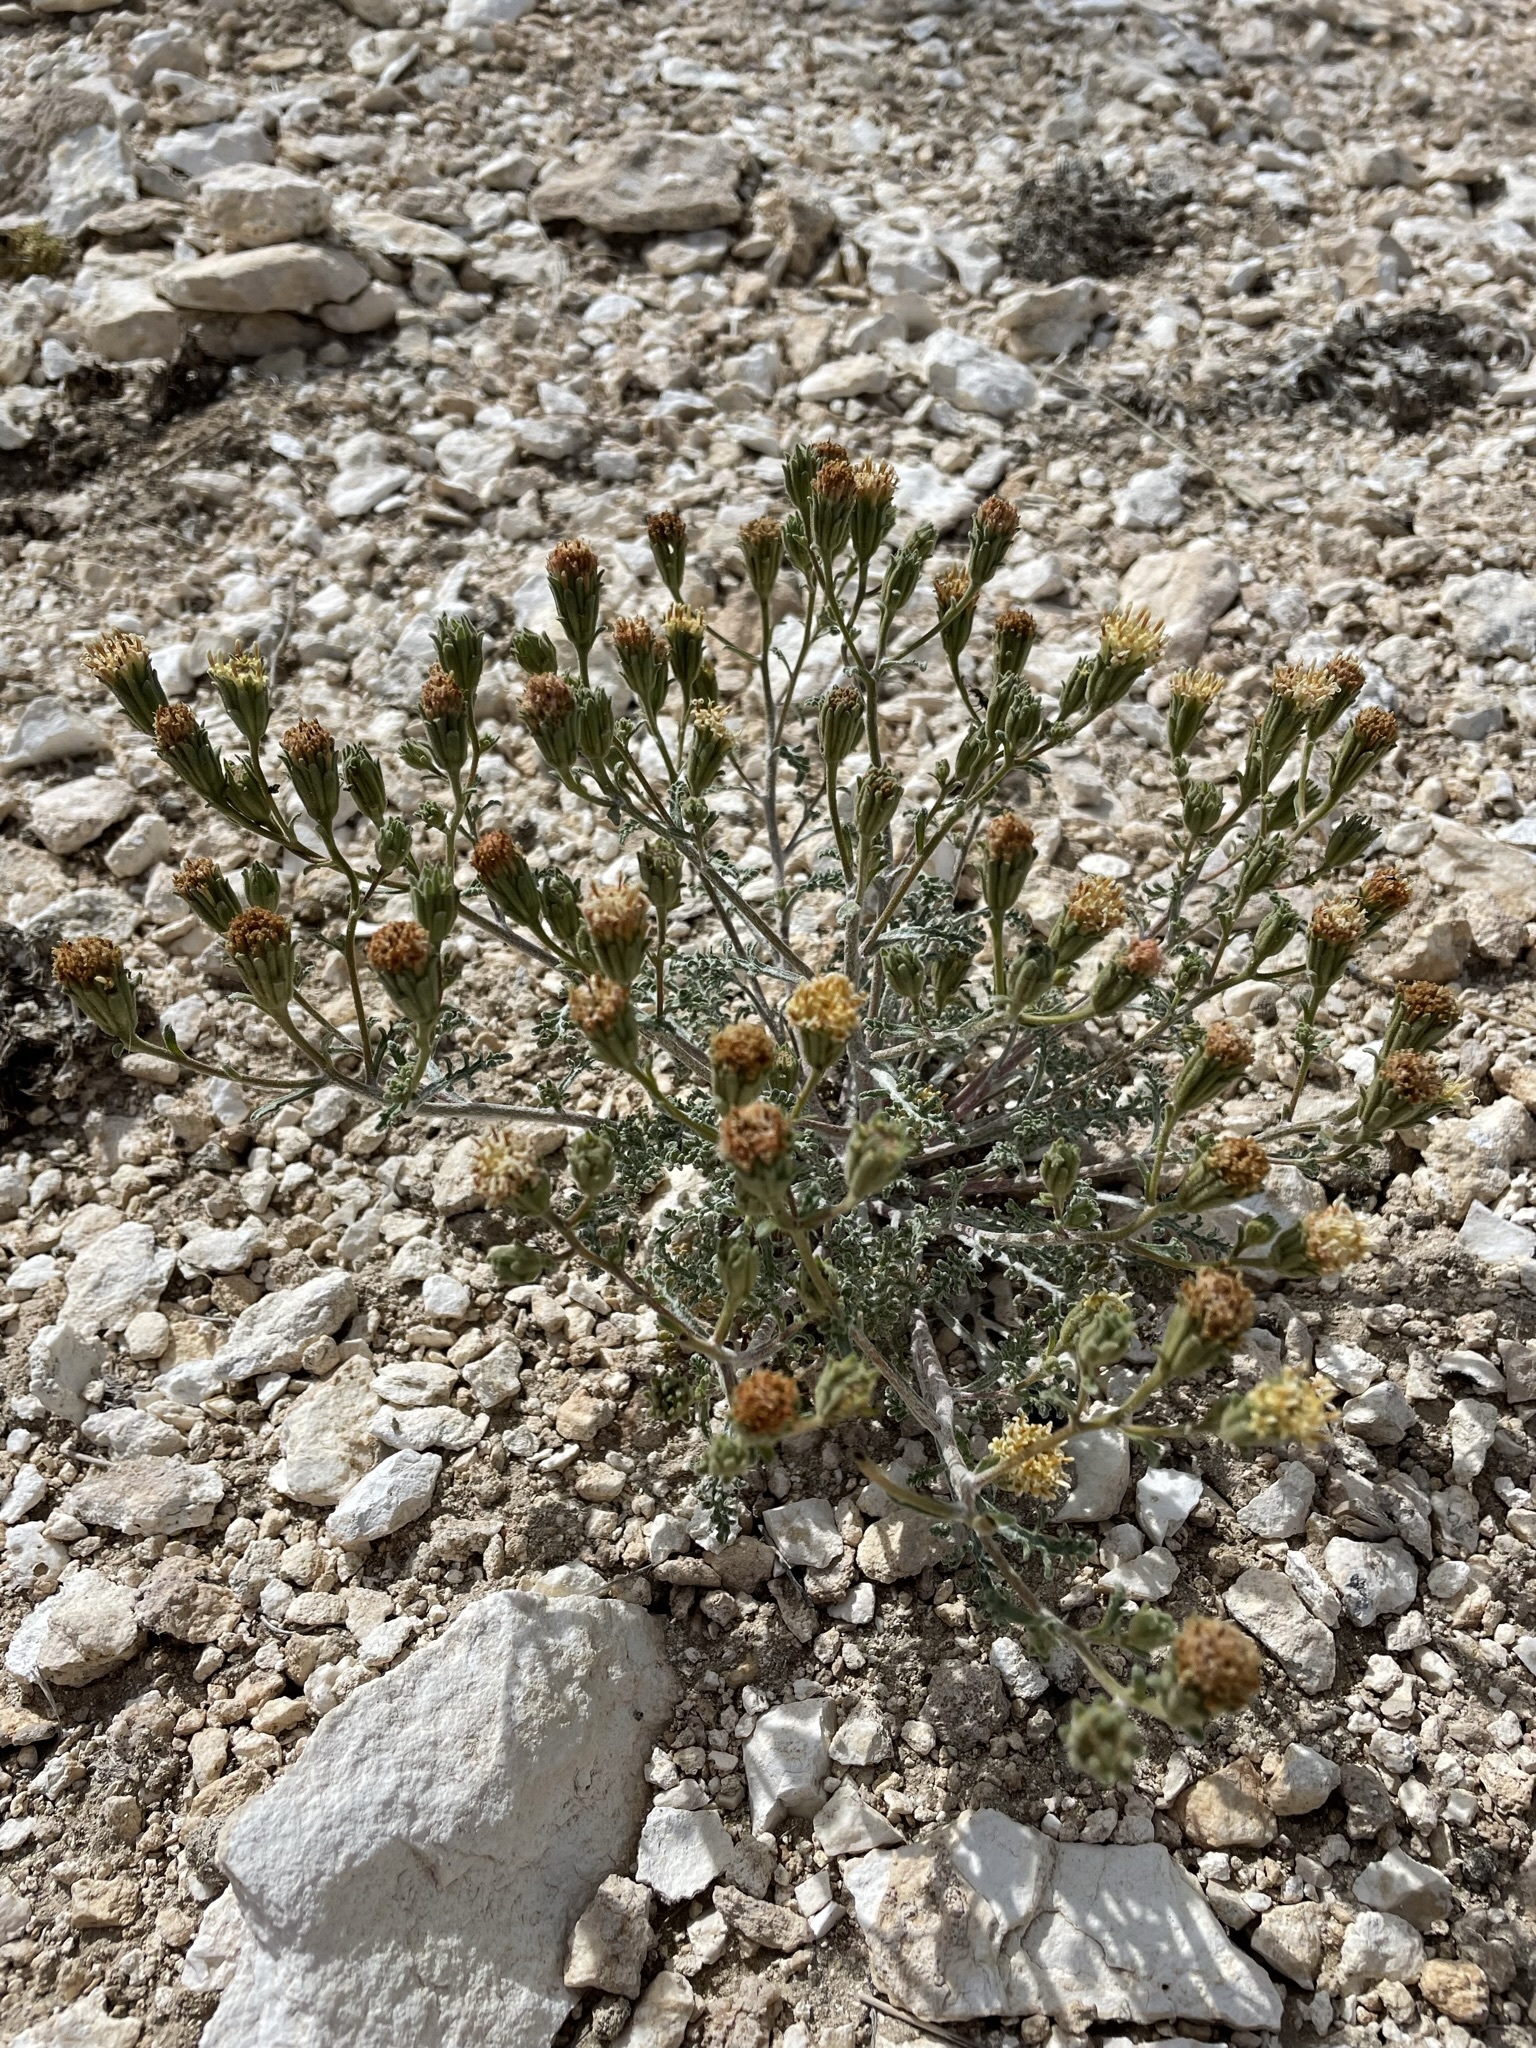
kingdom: Plantae
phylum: Tracheophyta
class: Magnoliopsida
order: Asterales
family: Asteraceae
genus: Chaenactis
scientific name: Chaenactis douglasii
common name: Hoary pincushion
